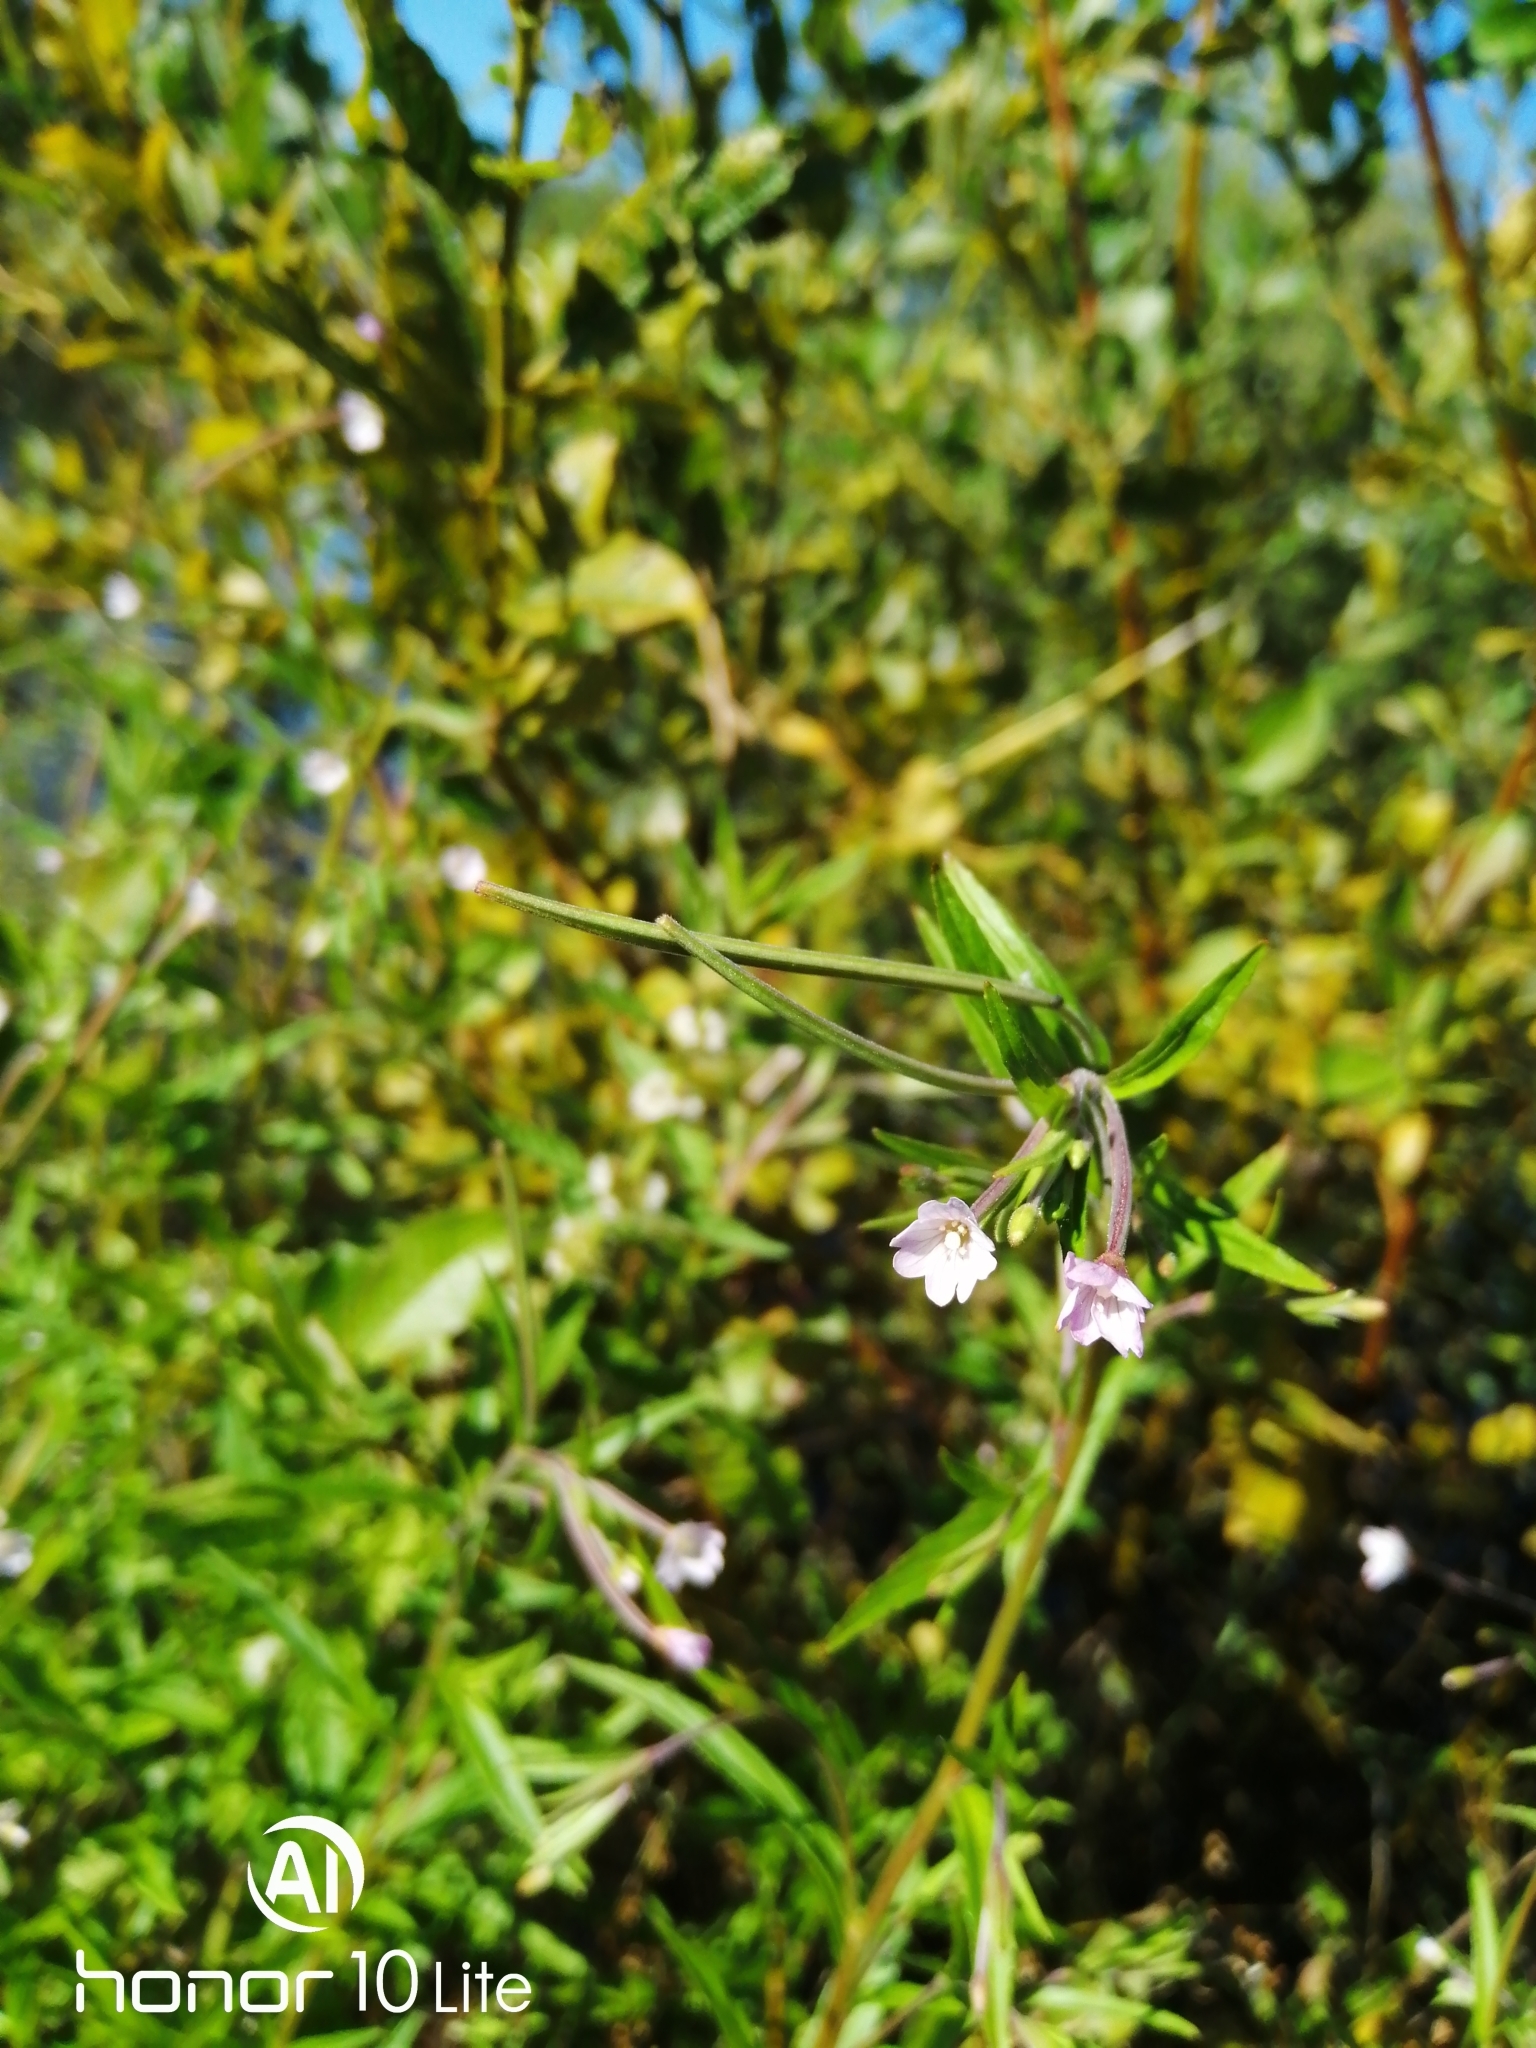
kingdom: Plantae
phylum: Tracheophyta
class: Magnoliopsida
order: Myrtales
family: Onagraceae
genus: Epilobium
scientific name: Epilobium palustre
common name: Marsh willowherb
